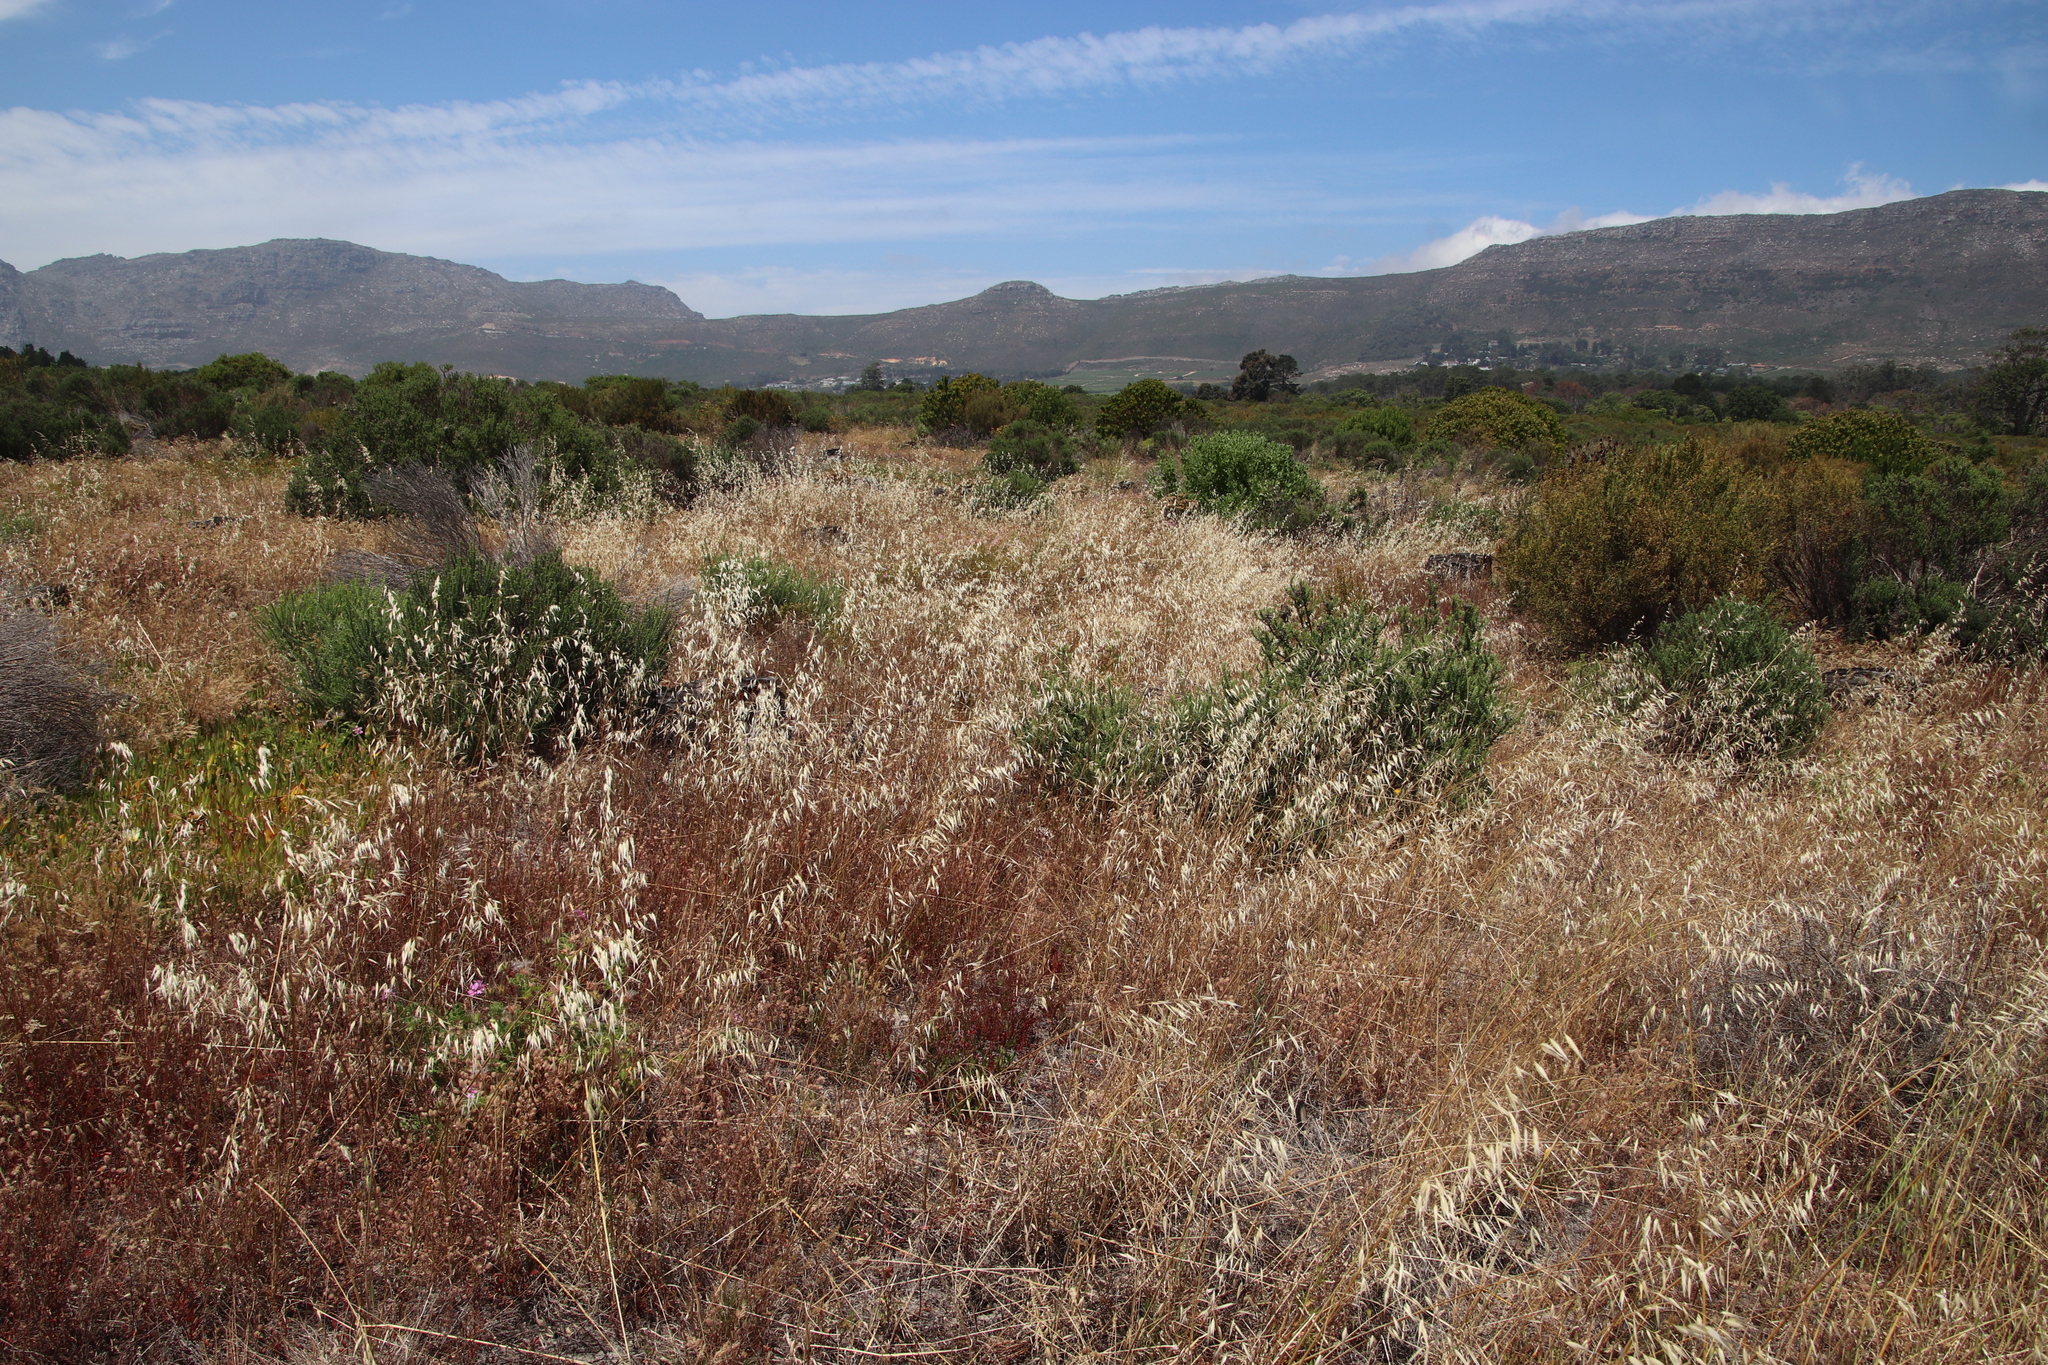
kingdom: Plantae
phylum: Tracheophyta
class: Liliopsida
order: Poales
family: Poaceae
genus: Avena
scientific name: Avena fatua
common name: Wild oat
